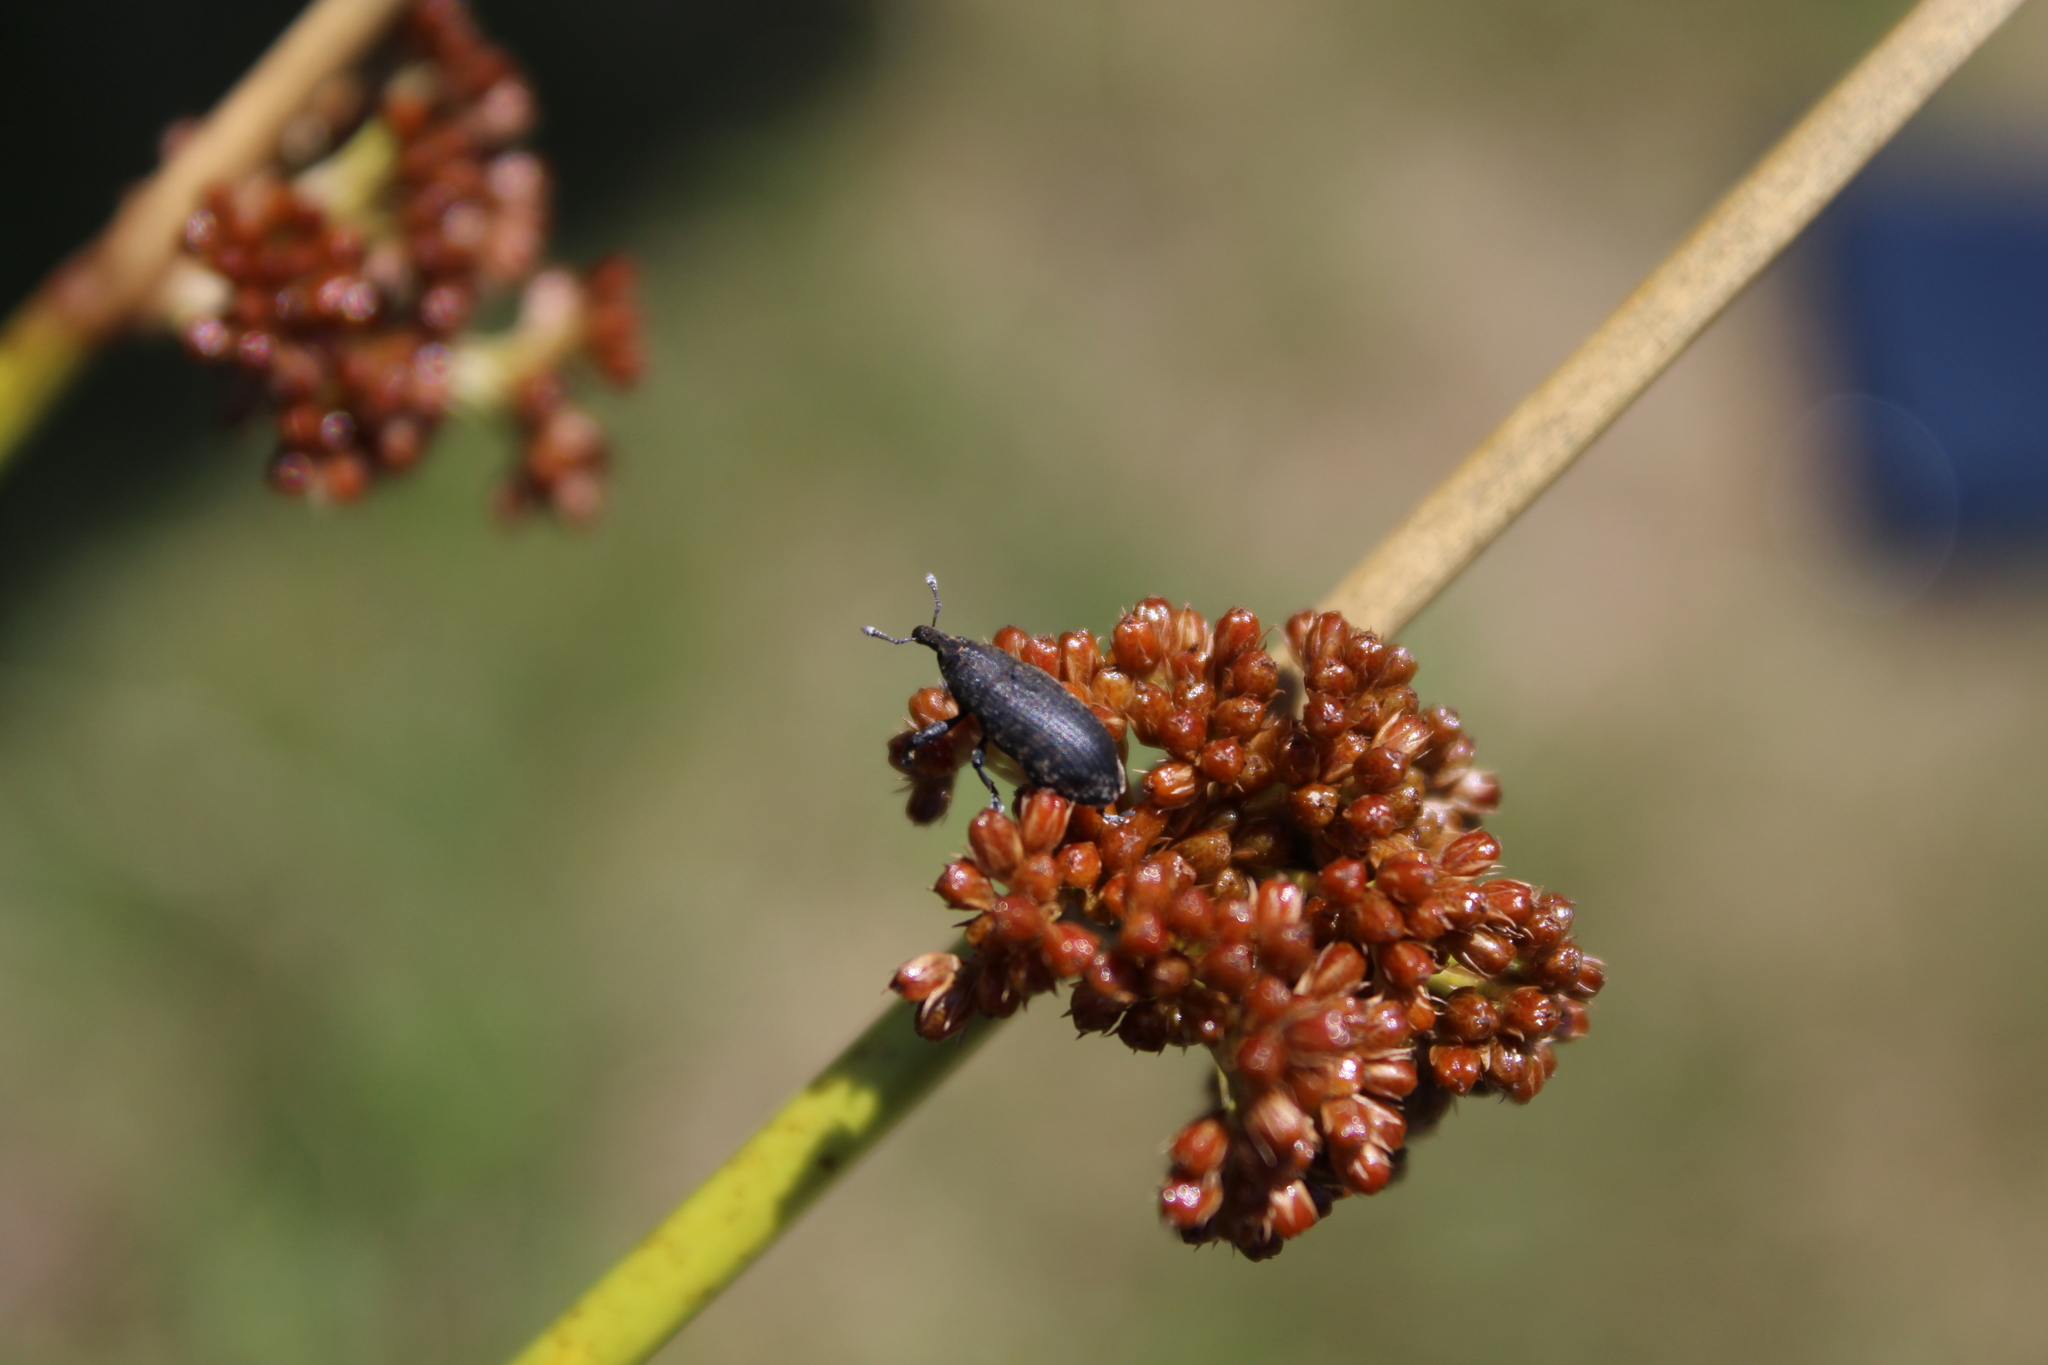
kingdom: Animalia
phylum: Arthropoda
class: Insecta
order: Coleoptera
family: Curculionidae
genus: Larinus
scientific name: Larinus carlinae
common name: Weevil
